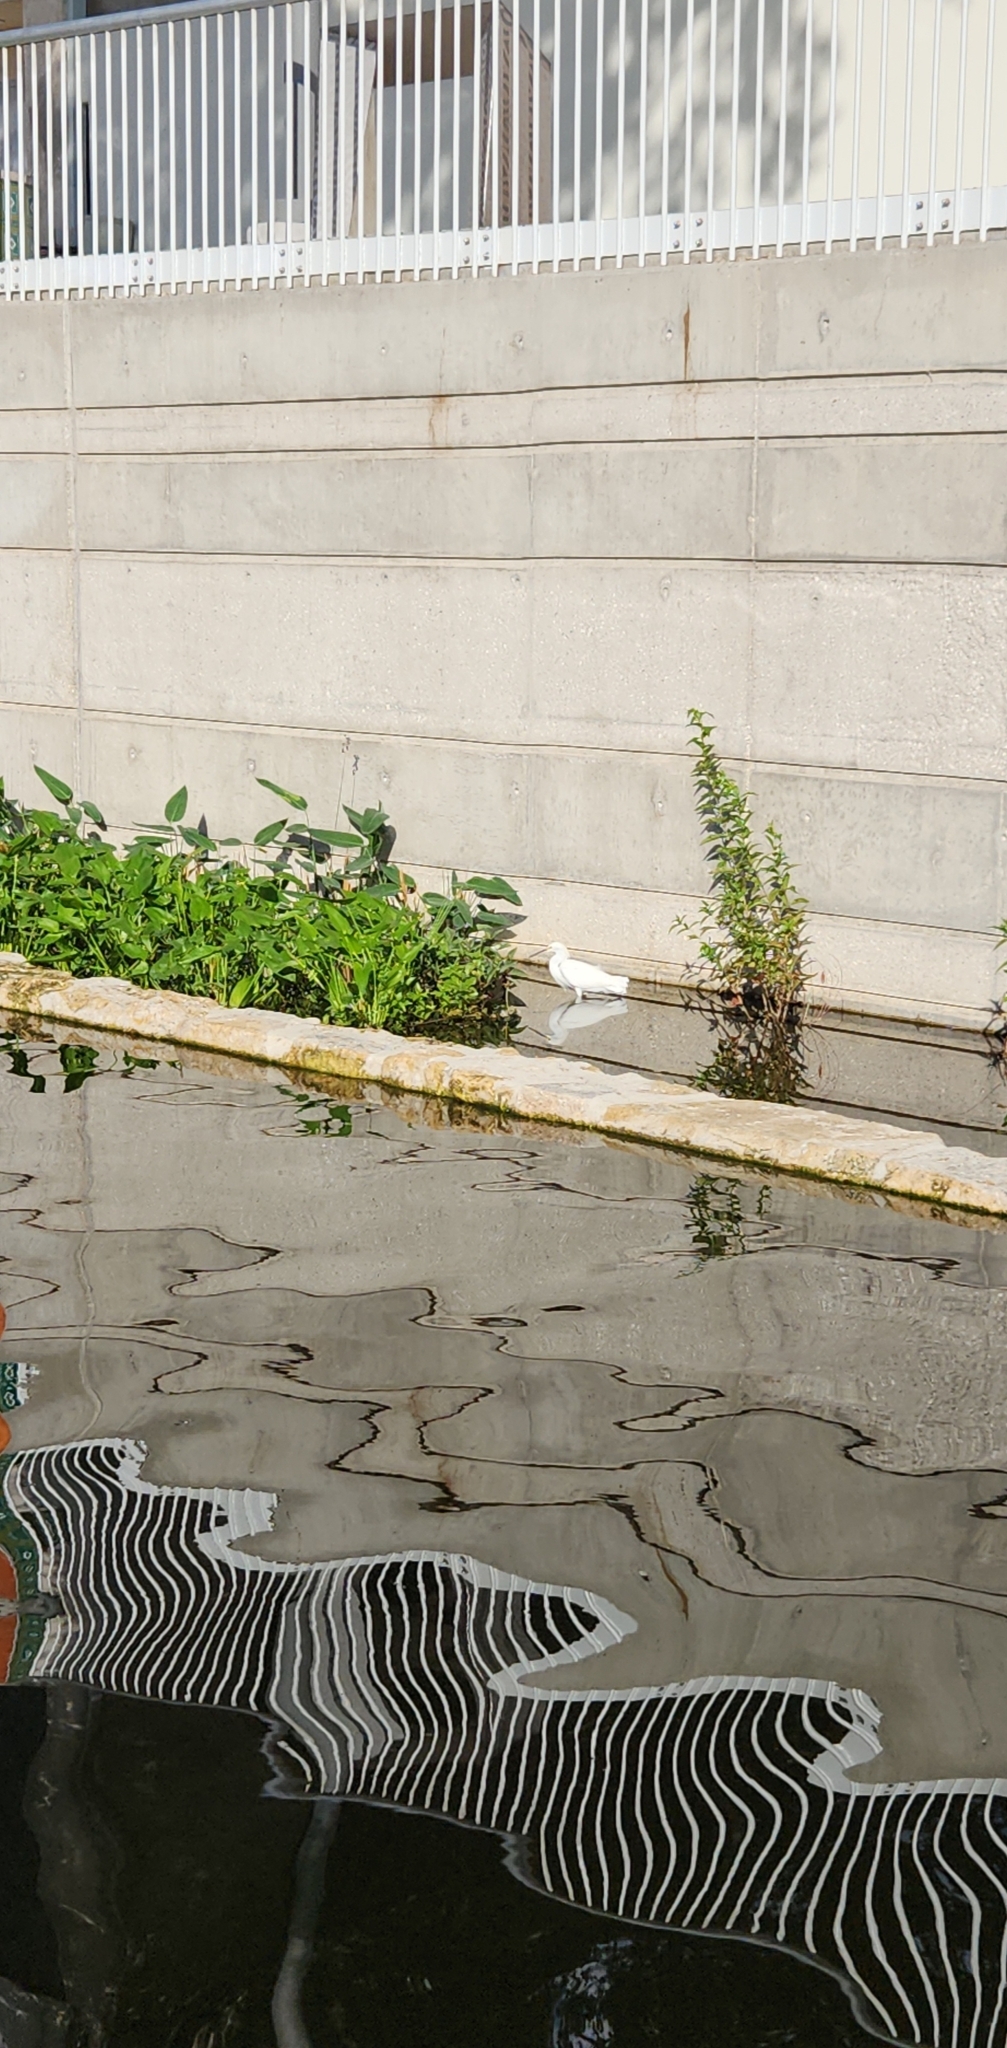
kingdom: Animalia
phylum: Chordata
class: Aves
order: Pelecaniformes
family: Ardeidae
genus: Egretta
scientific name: Egretta thula
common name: Snowy egret
